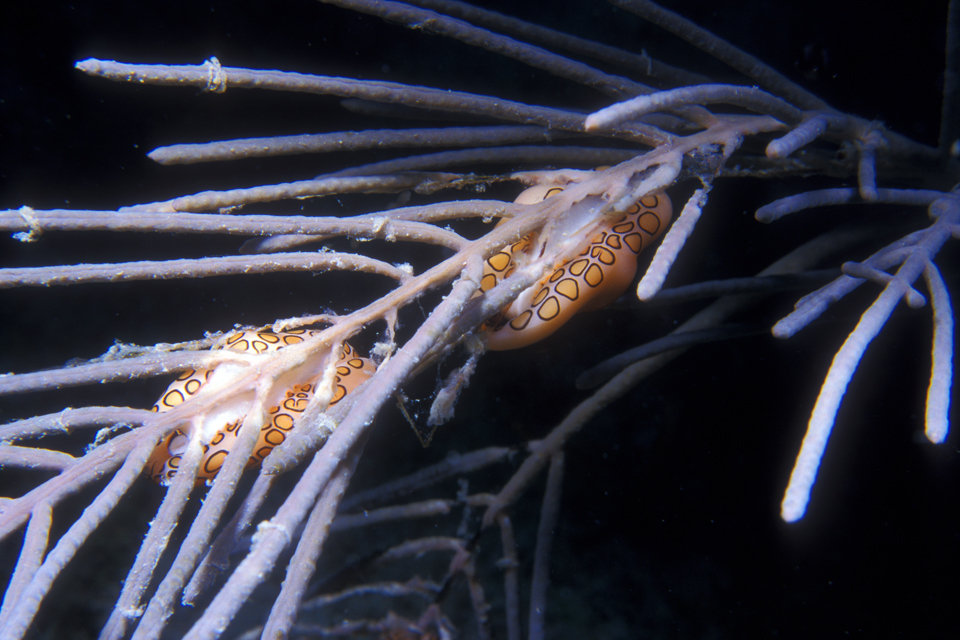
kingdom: Animalia
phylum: Mollusca
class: Gastropoda
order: Littorinimorpha
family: Ovulidae
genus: Cyphoma
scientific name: Cyphoma gibbosum
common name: Flamingo tongue
